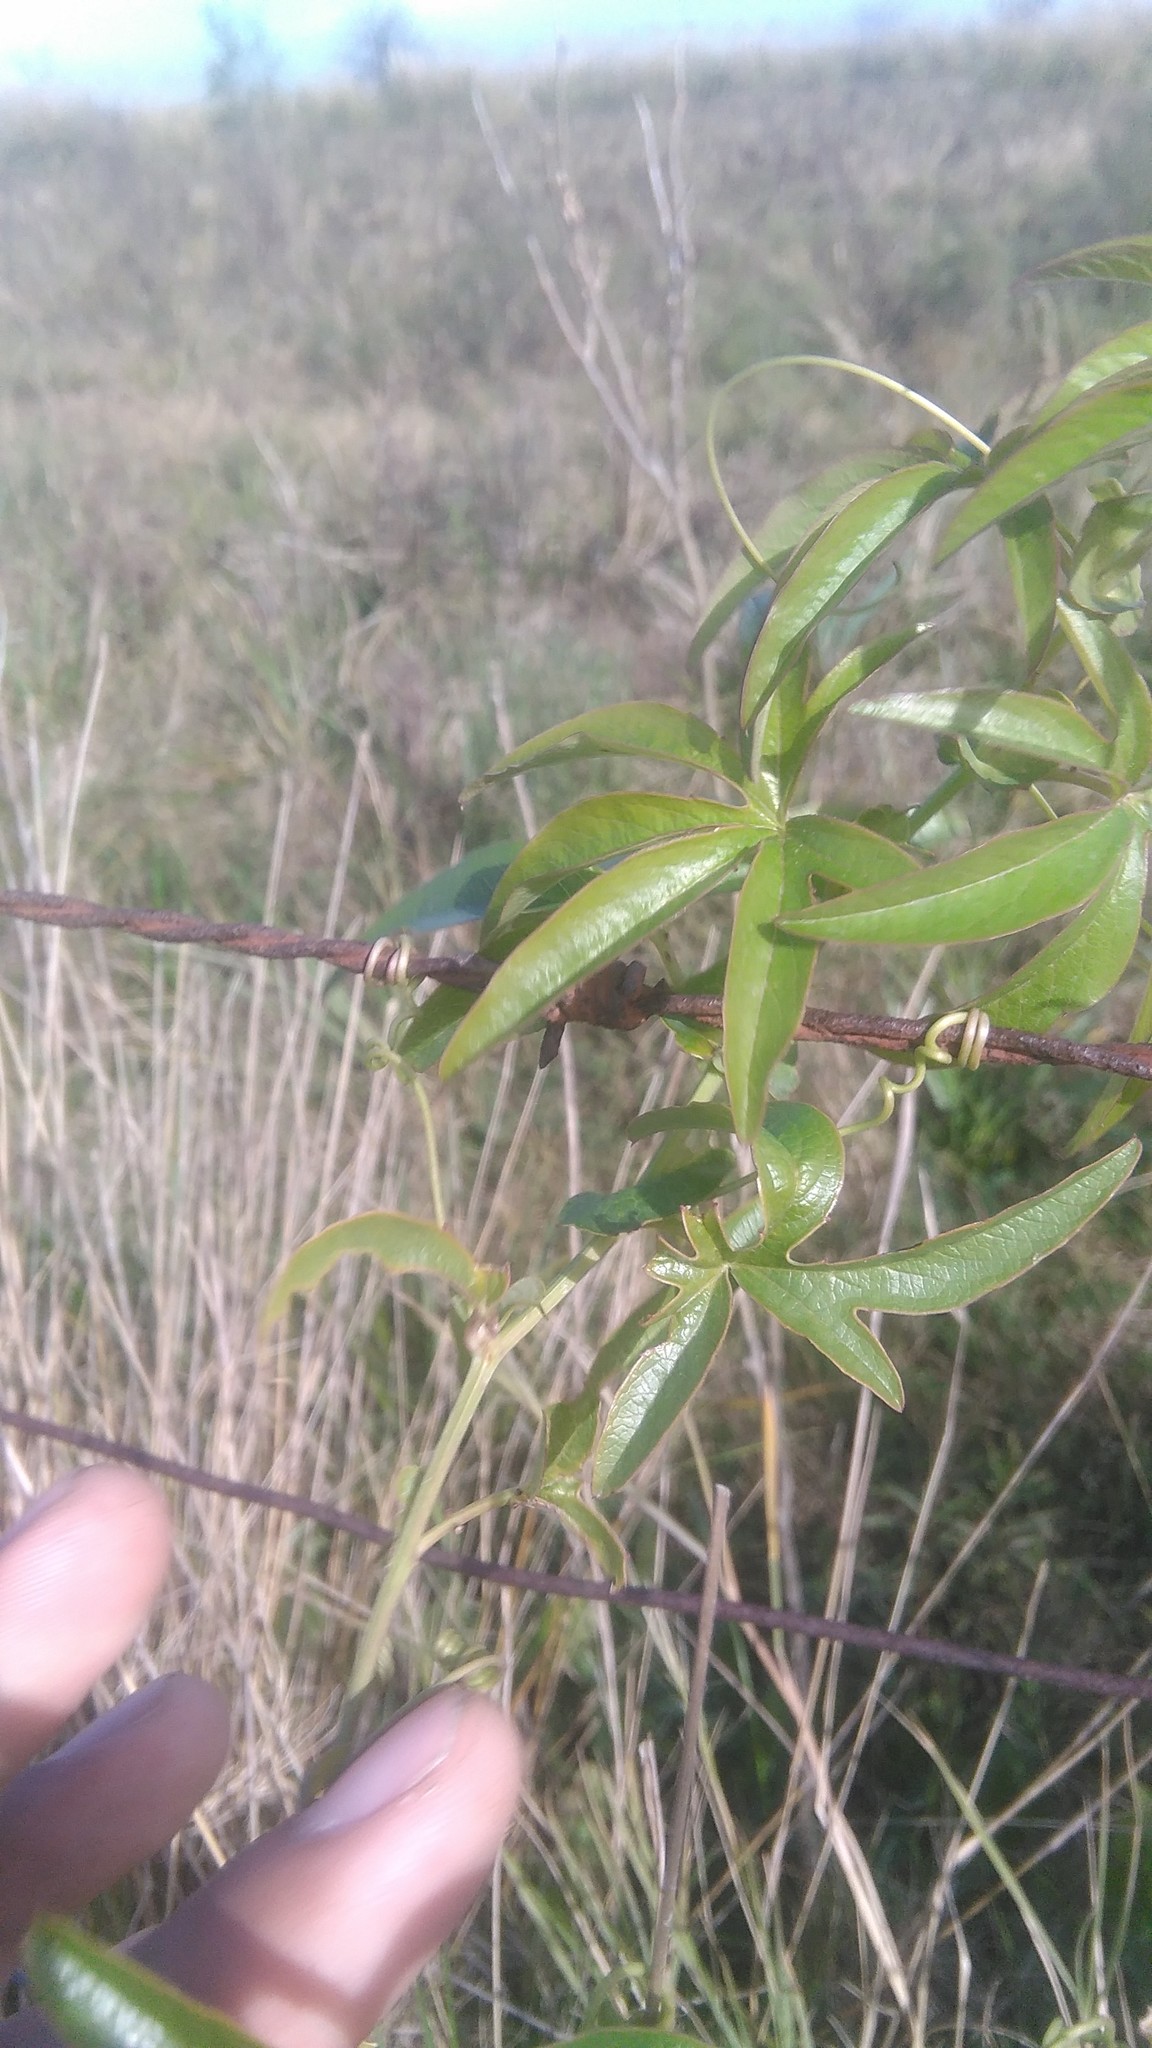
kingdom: Plantae
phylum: Tracheophyta
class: Magnoliopsida
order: Malpighiales
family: Passifloraceae
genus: Passiflora
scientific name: Passiflora caerulea
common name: Blue passionflower
